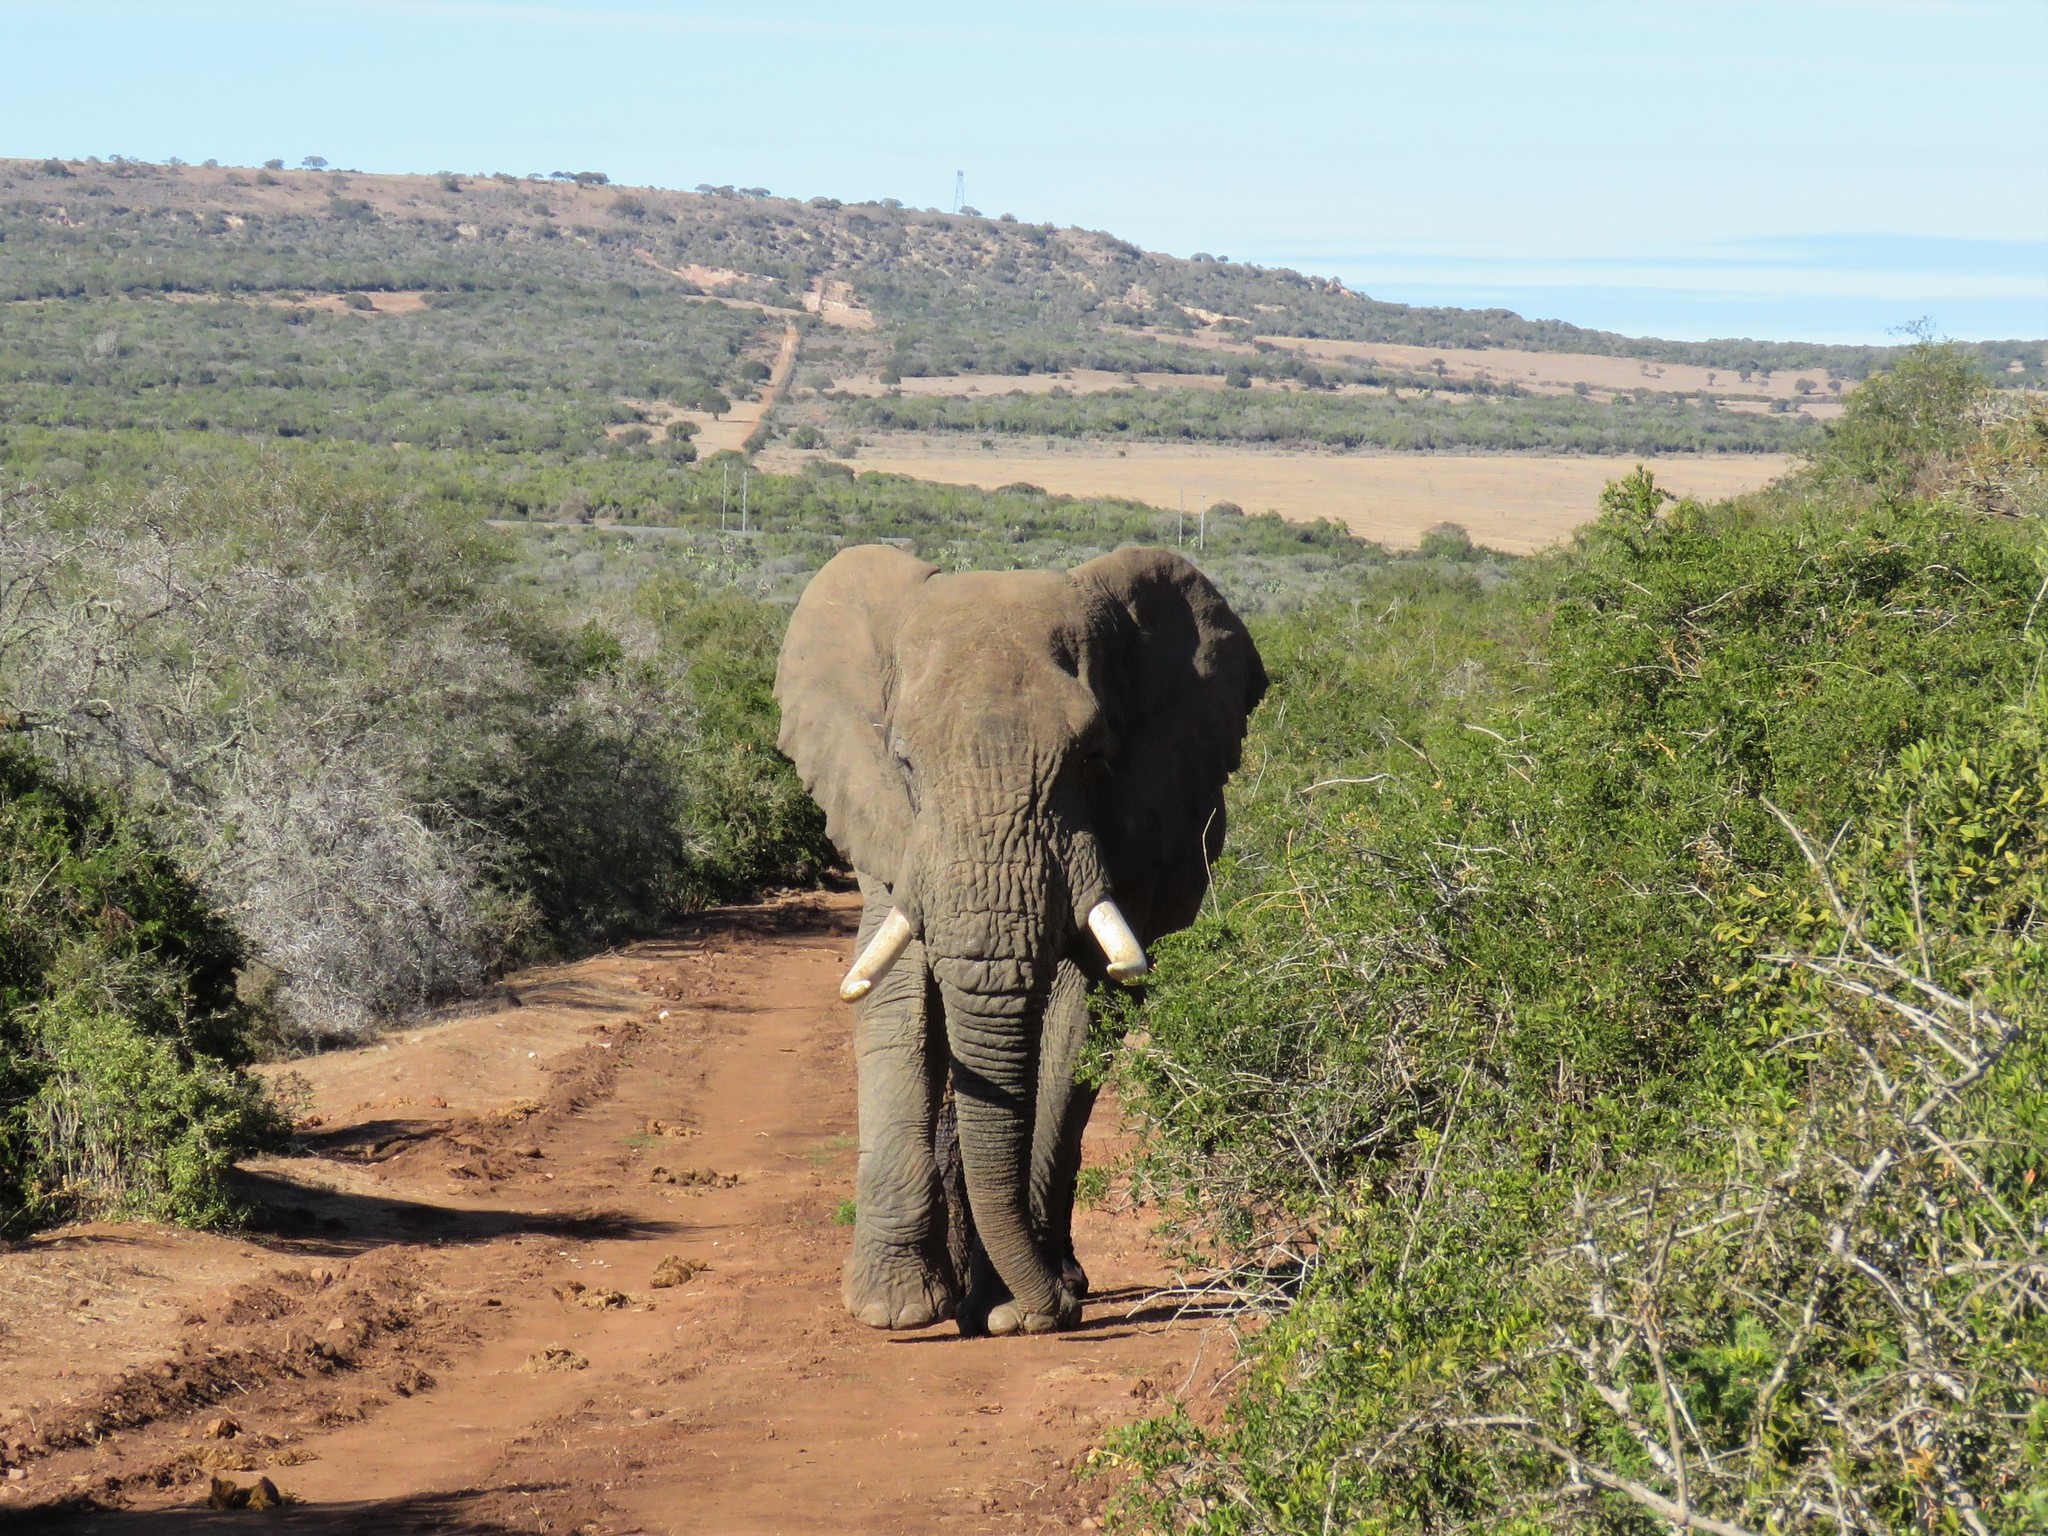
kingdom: Animalia
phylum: Chordata
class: Mammalia
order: Proboscidea
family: Elephantidae
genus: Loxodonta
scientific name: Loxodonta africana
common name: African elephant
